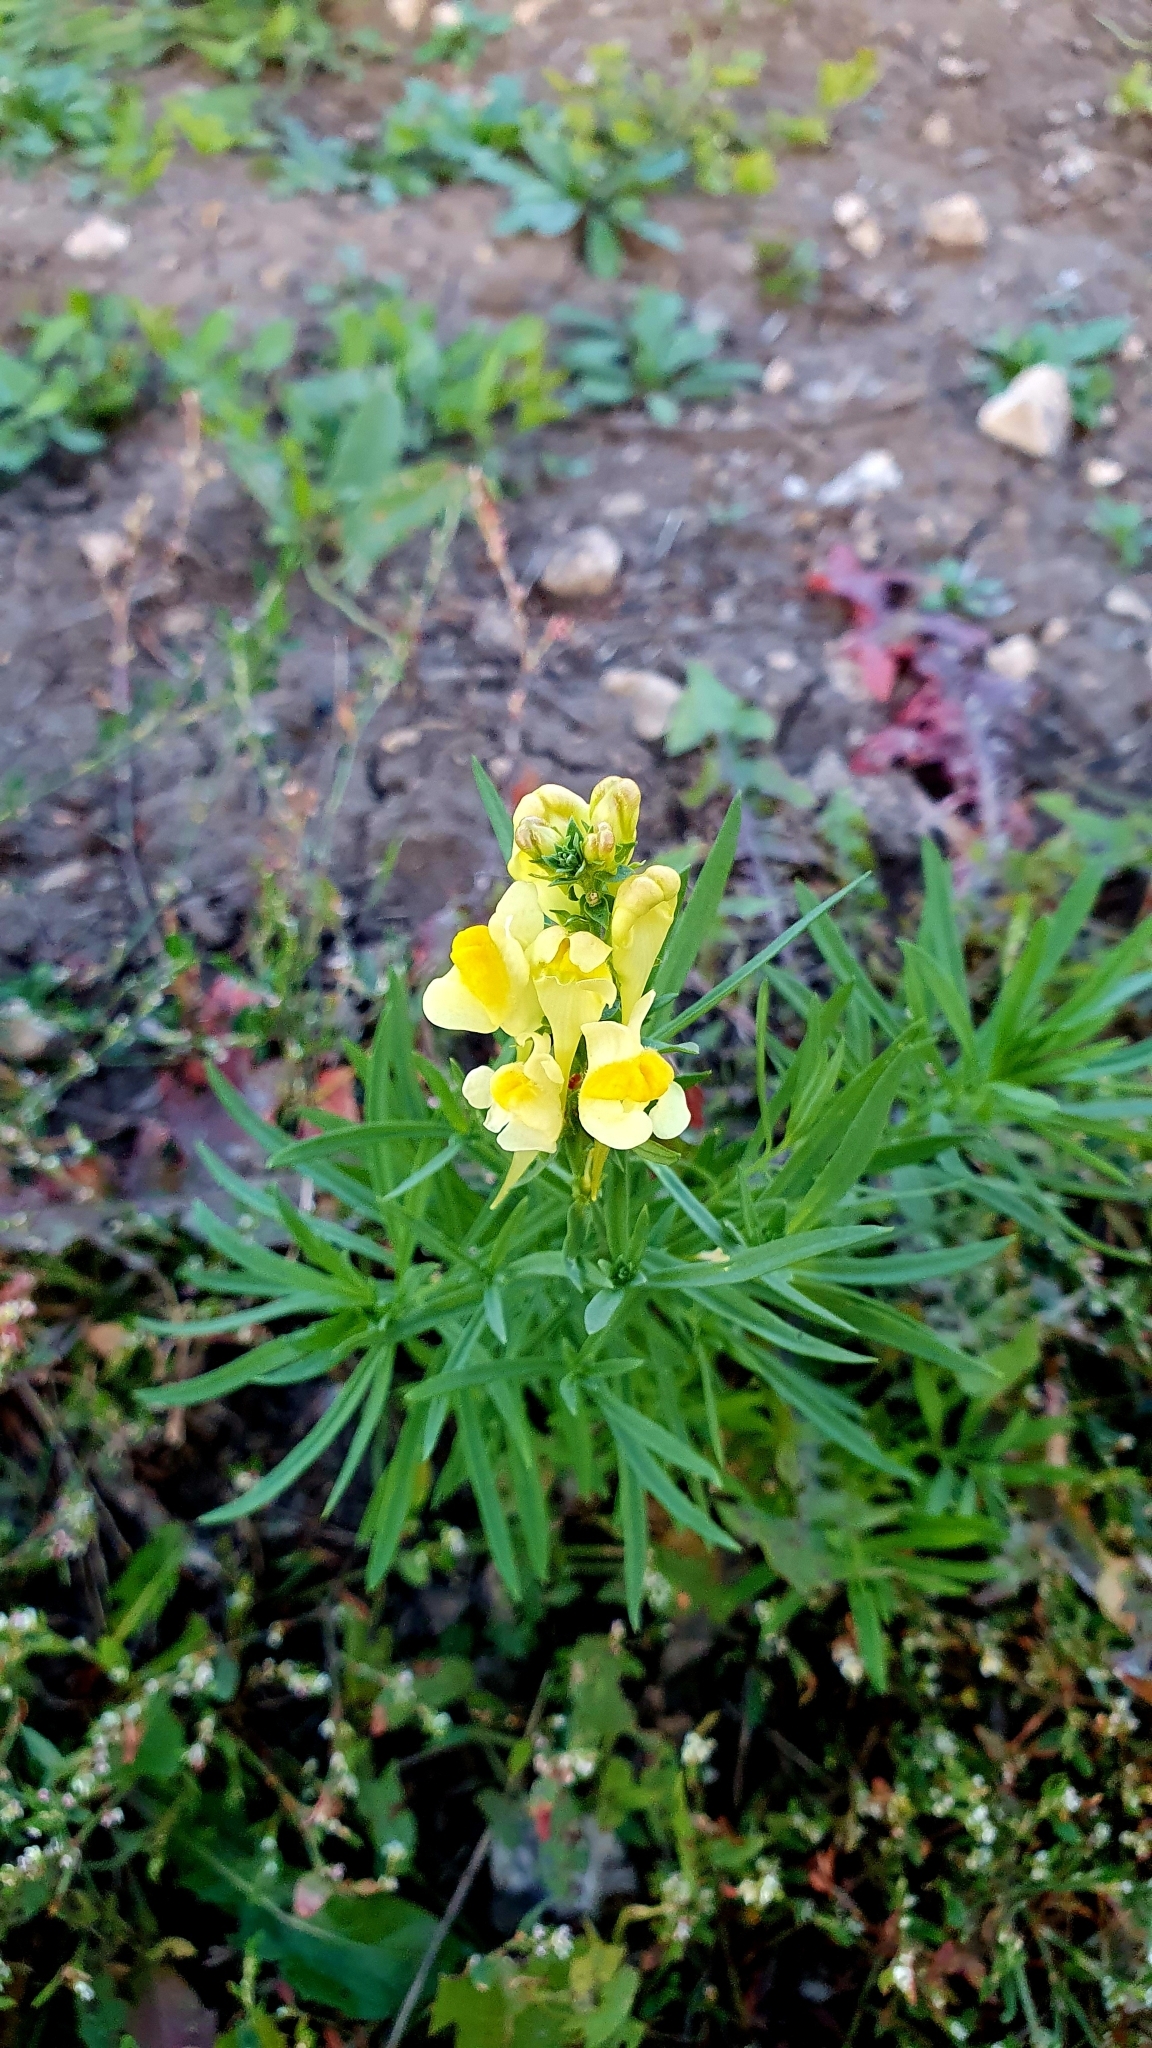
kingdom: Plantae
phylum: Tracheophyta
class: Magnoliopsida
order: Lamiales
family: Plantaginaceae
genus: Linaria
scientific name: Linaria vulgaris
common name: Butter and eggs
